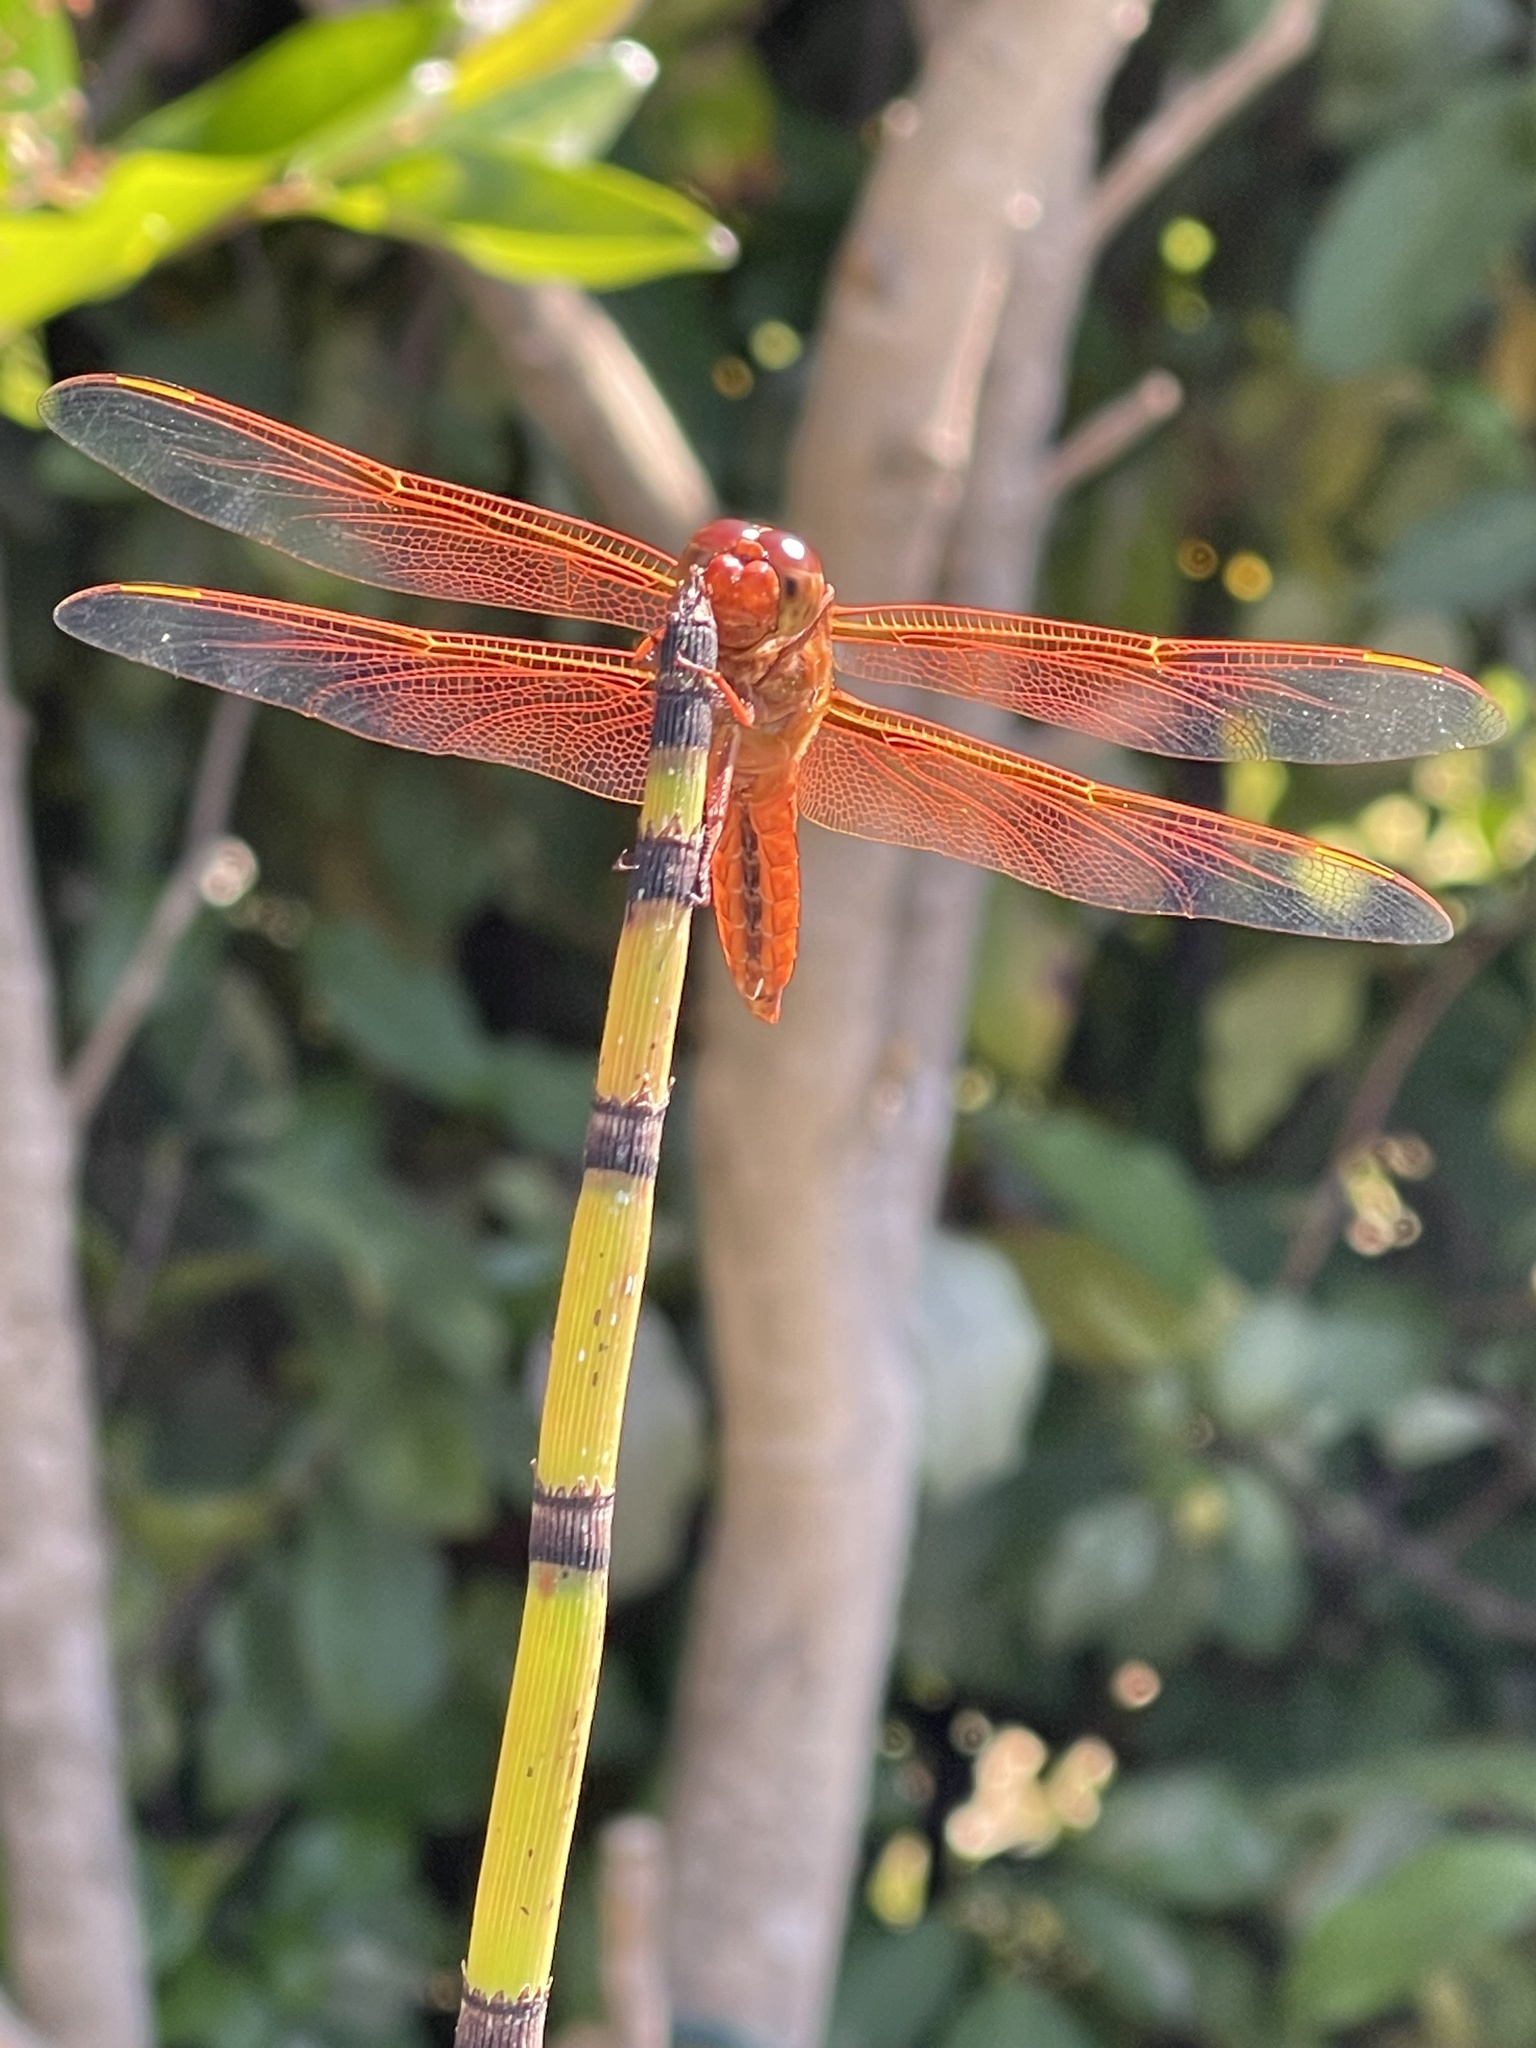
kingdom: Animalia
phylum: Arthropoda
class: Insecta
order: Odonata
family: Libellulidae
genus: Libellula
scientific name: Libellula saturata
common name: Flame skimmer
